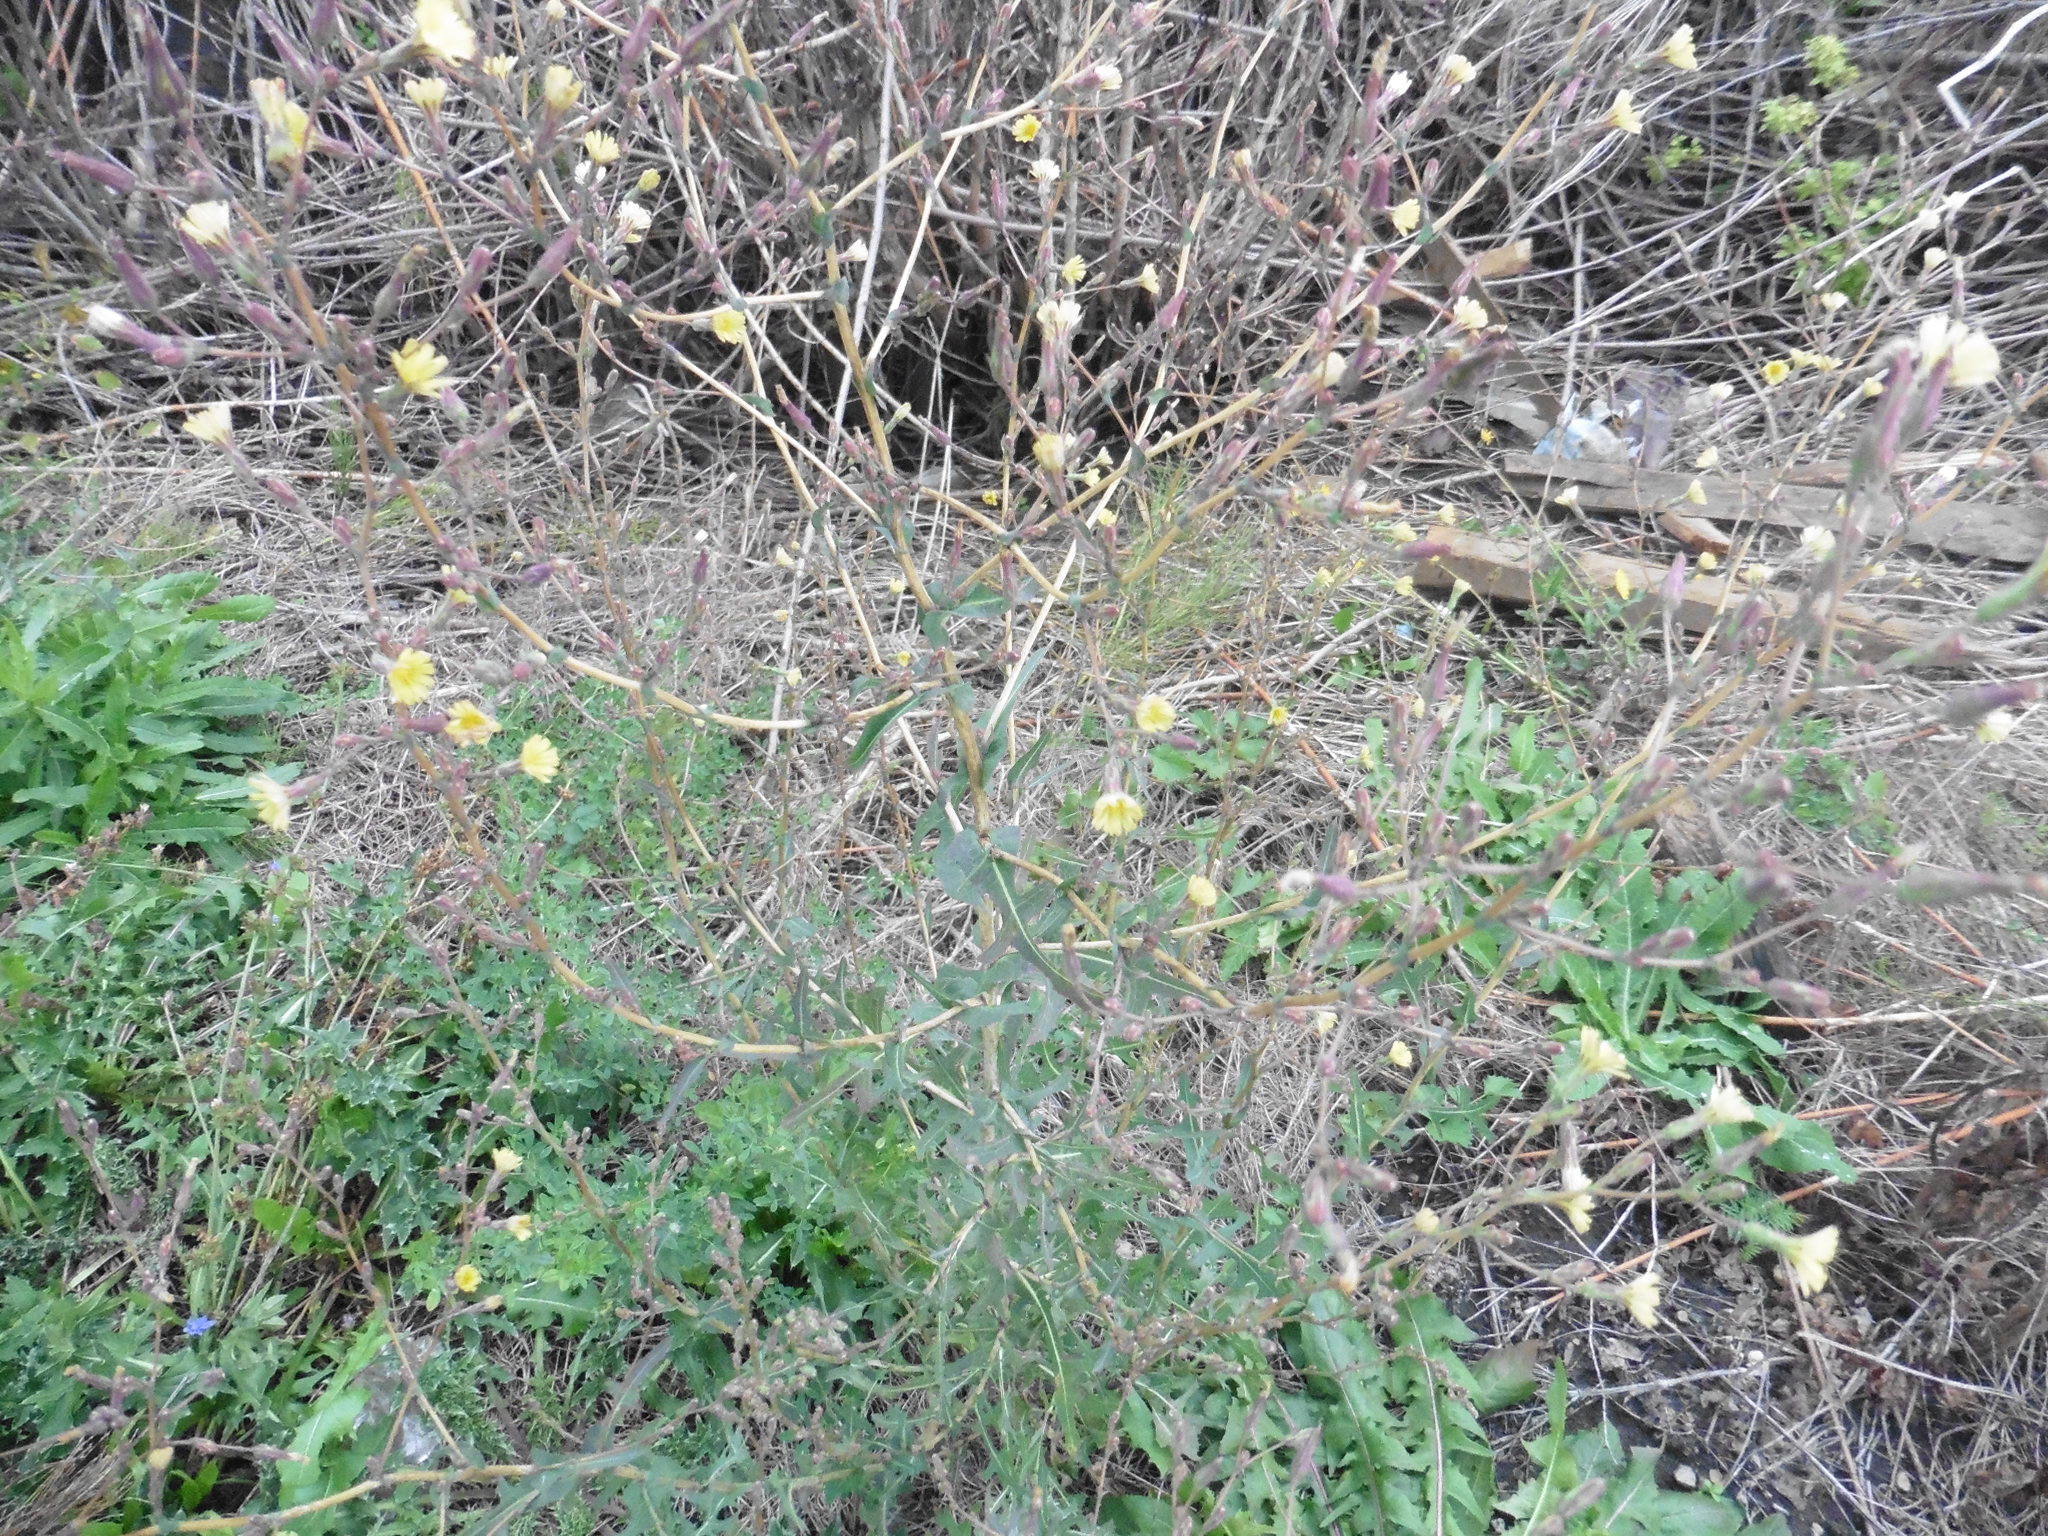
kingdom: Plantae
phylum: Tracheophyta
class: Magnoliopsida
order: Asterales
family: Asteraceae
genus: Lactuca
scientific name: Lactuca serriola
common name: Prickly lettuce
